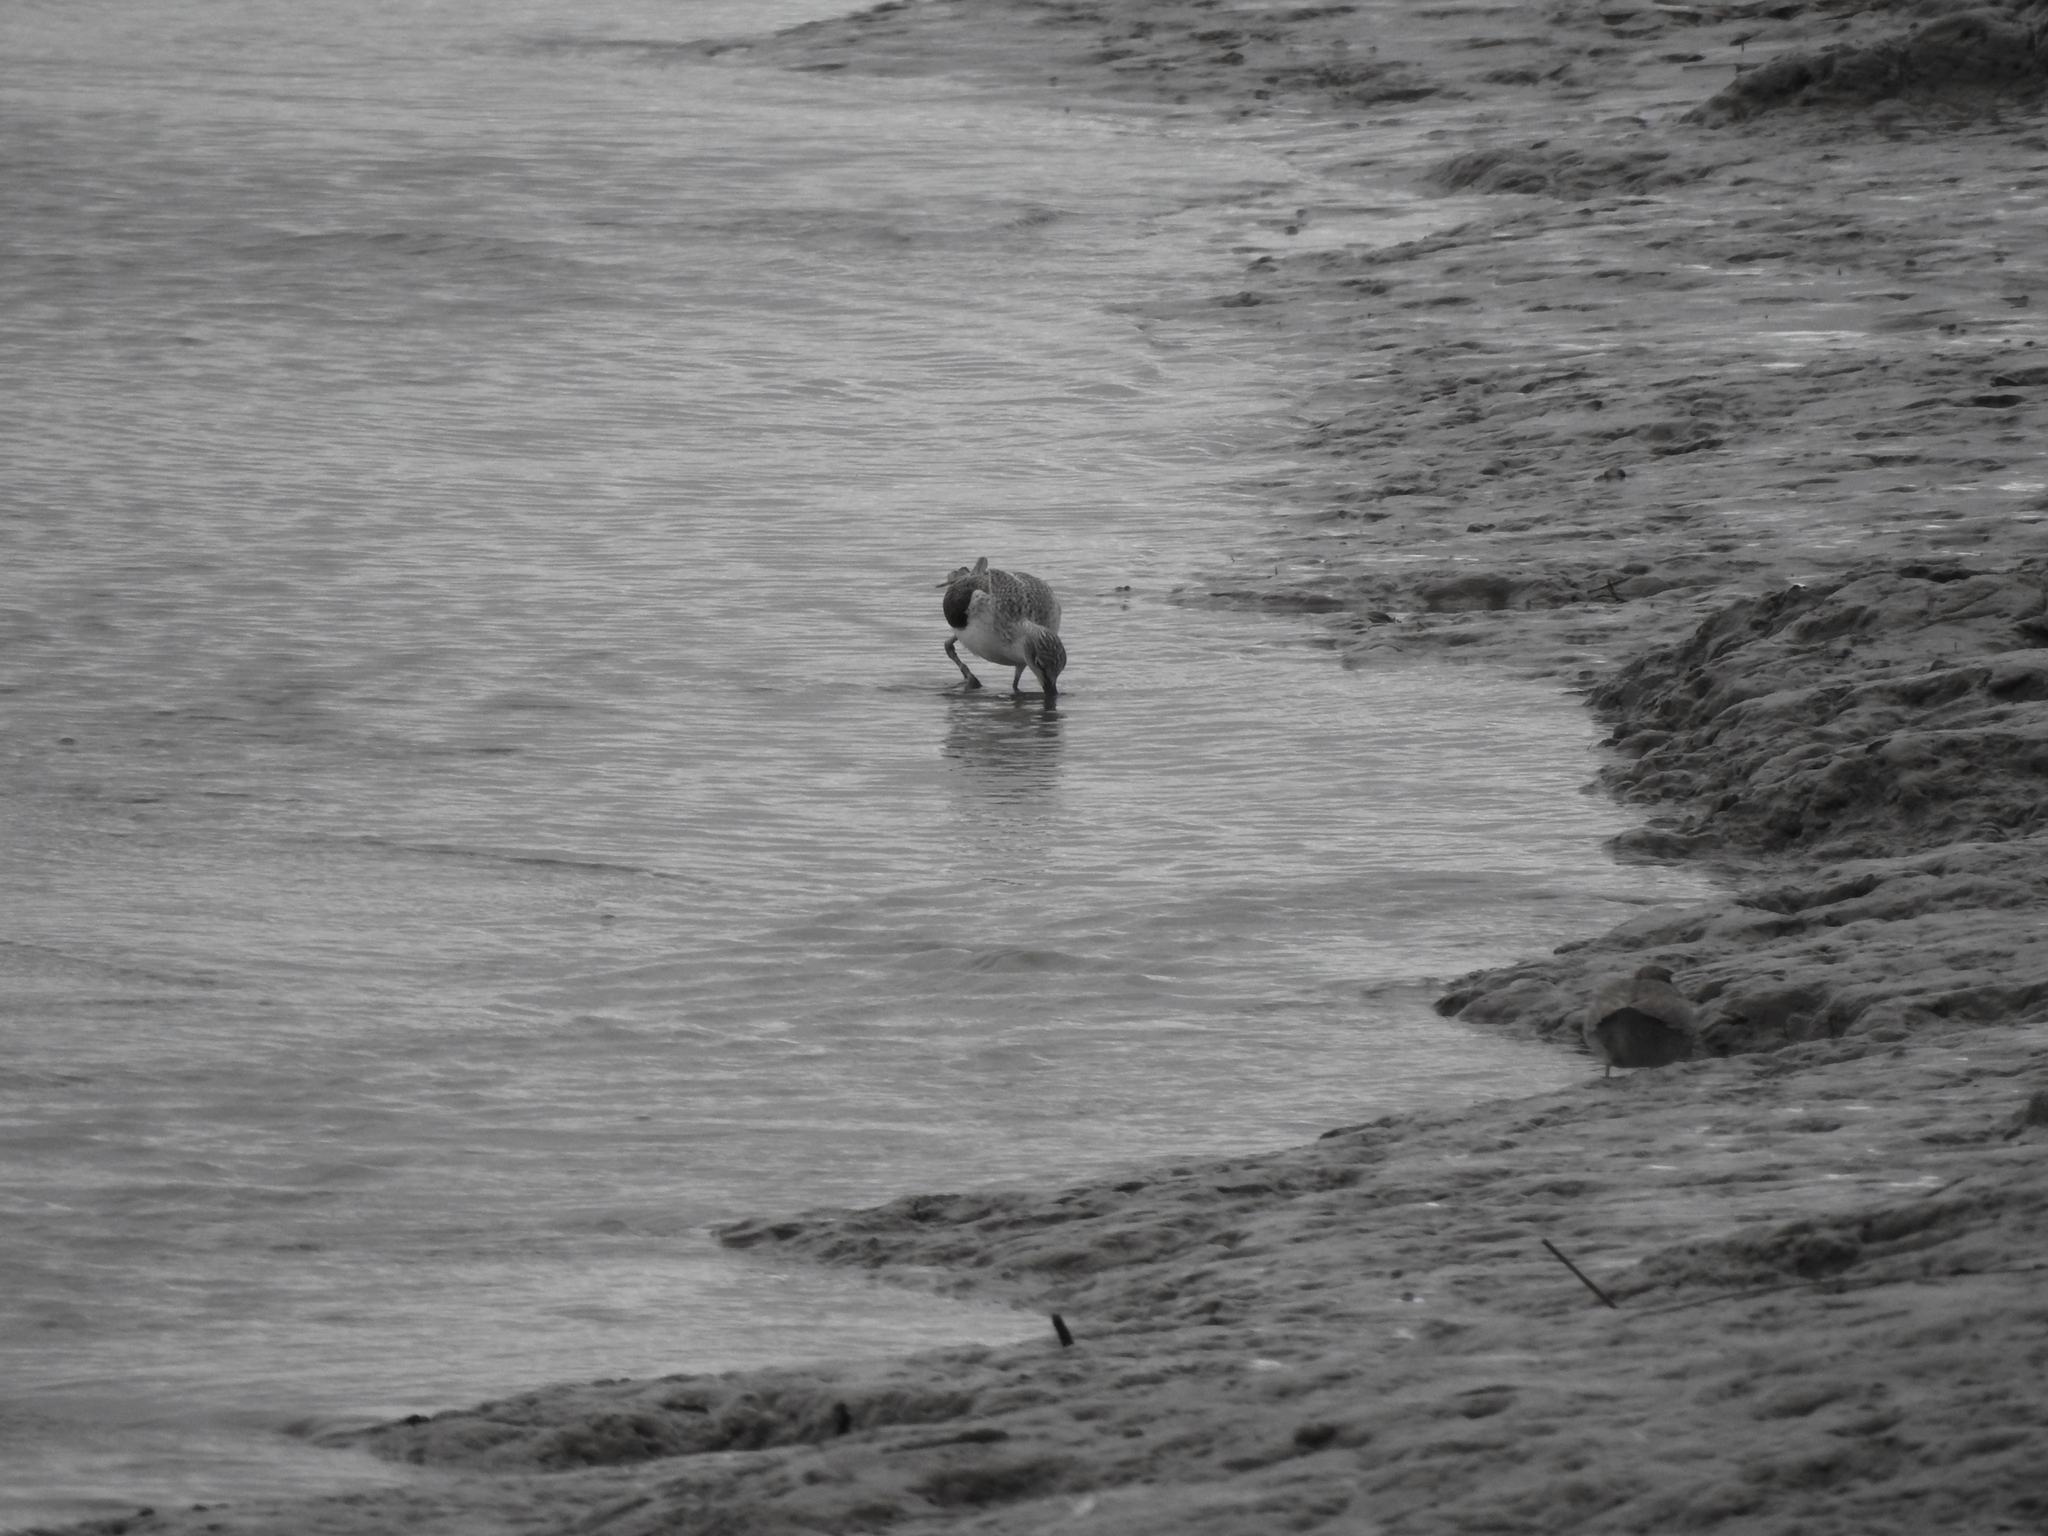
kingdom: Animalia
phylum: Chordata
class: Aves
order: Charadriiformes
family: Scolopacidae
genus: Tringa
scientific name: Tringa nebularia
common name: Common greenshank
